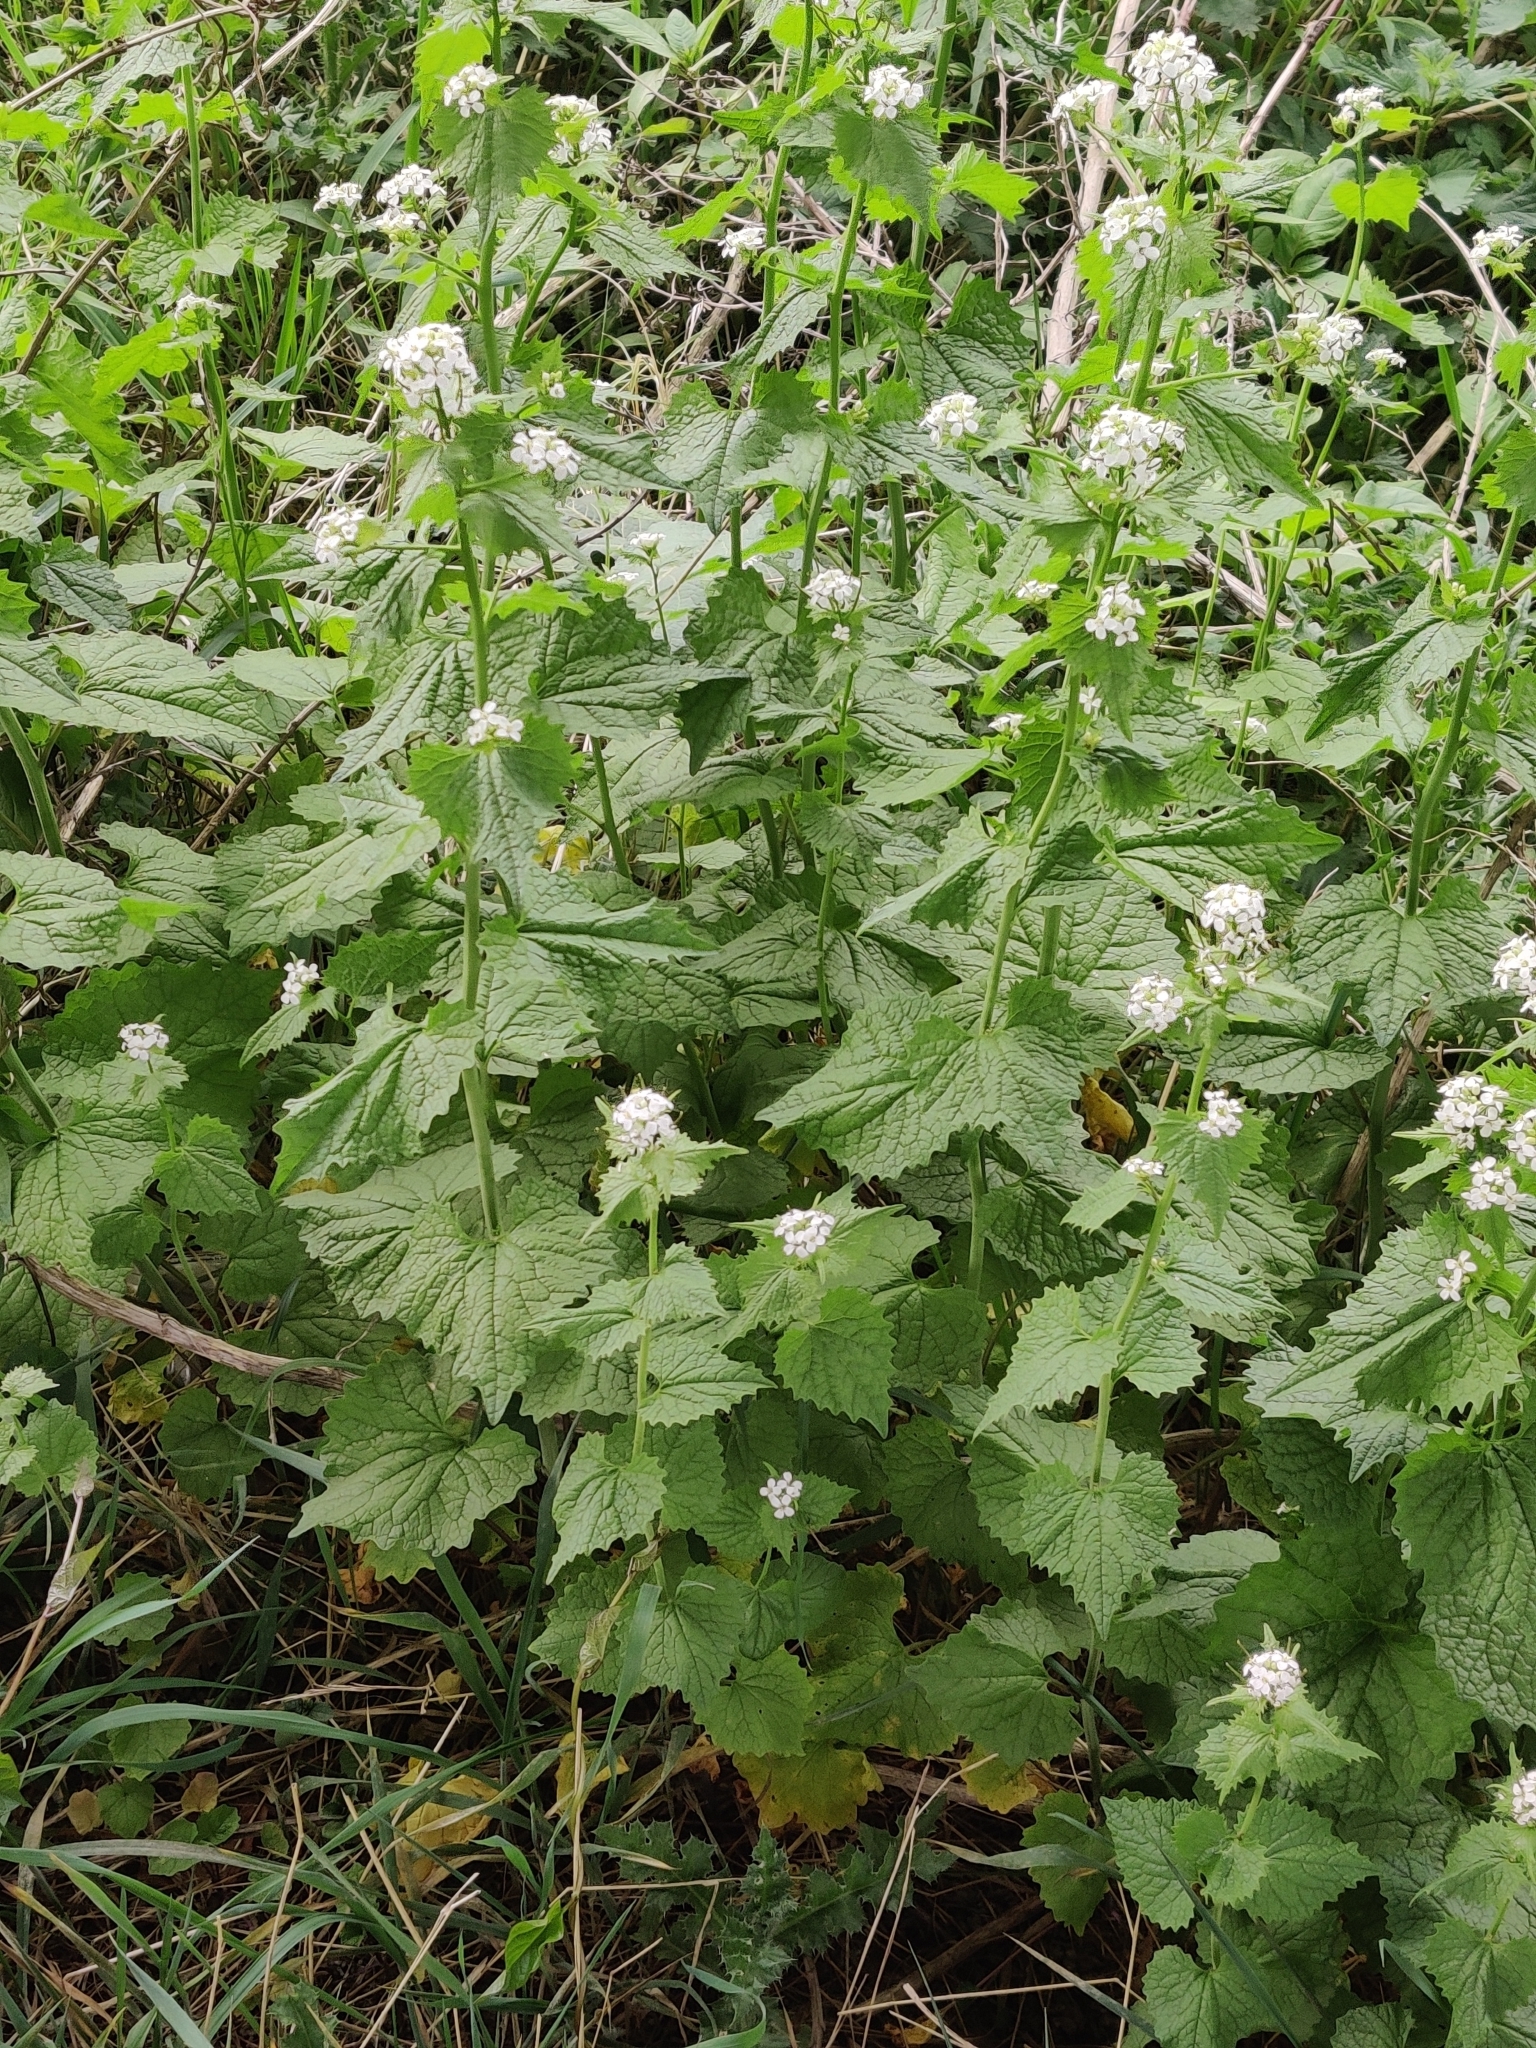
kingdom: Plantae
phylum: Tracheophyta
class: Magnoliopsida
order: Brassicales
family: Brassicaceae
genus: Alliaria
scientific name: Alliaria petiolata
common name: Garlic mustard
